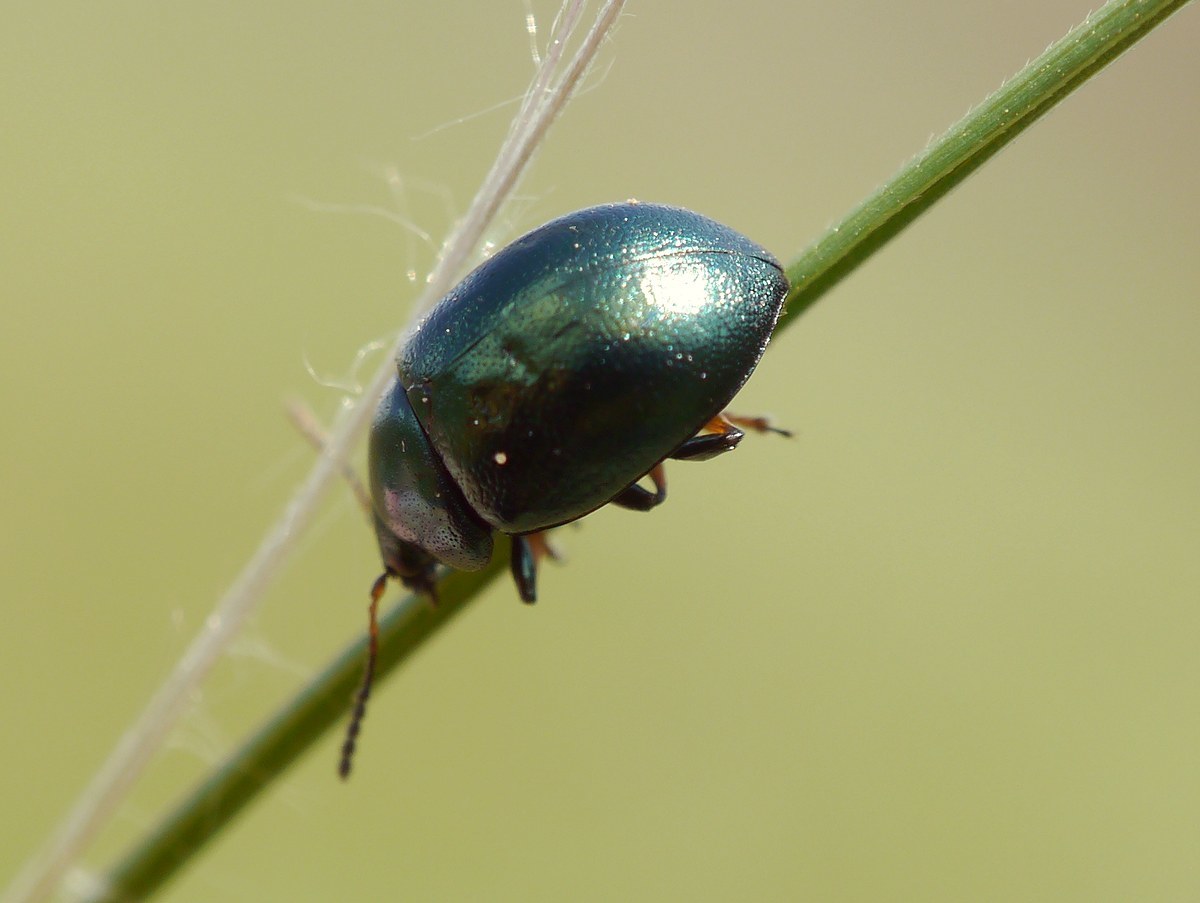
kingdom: Animalia
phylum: Arthropoda
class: Insecta
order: Coleoptera
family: Chrysomelidae
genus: Colaphellus
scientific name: Colaphellus sophiae
